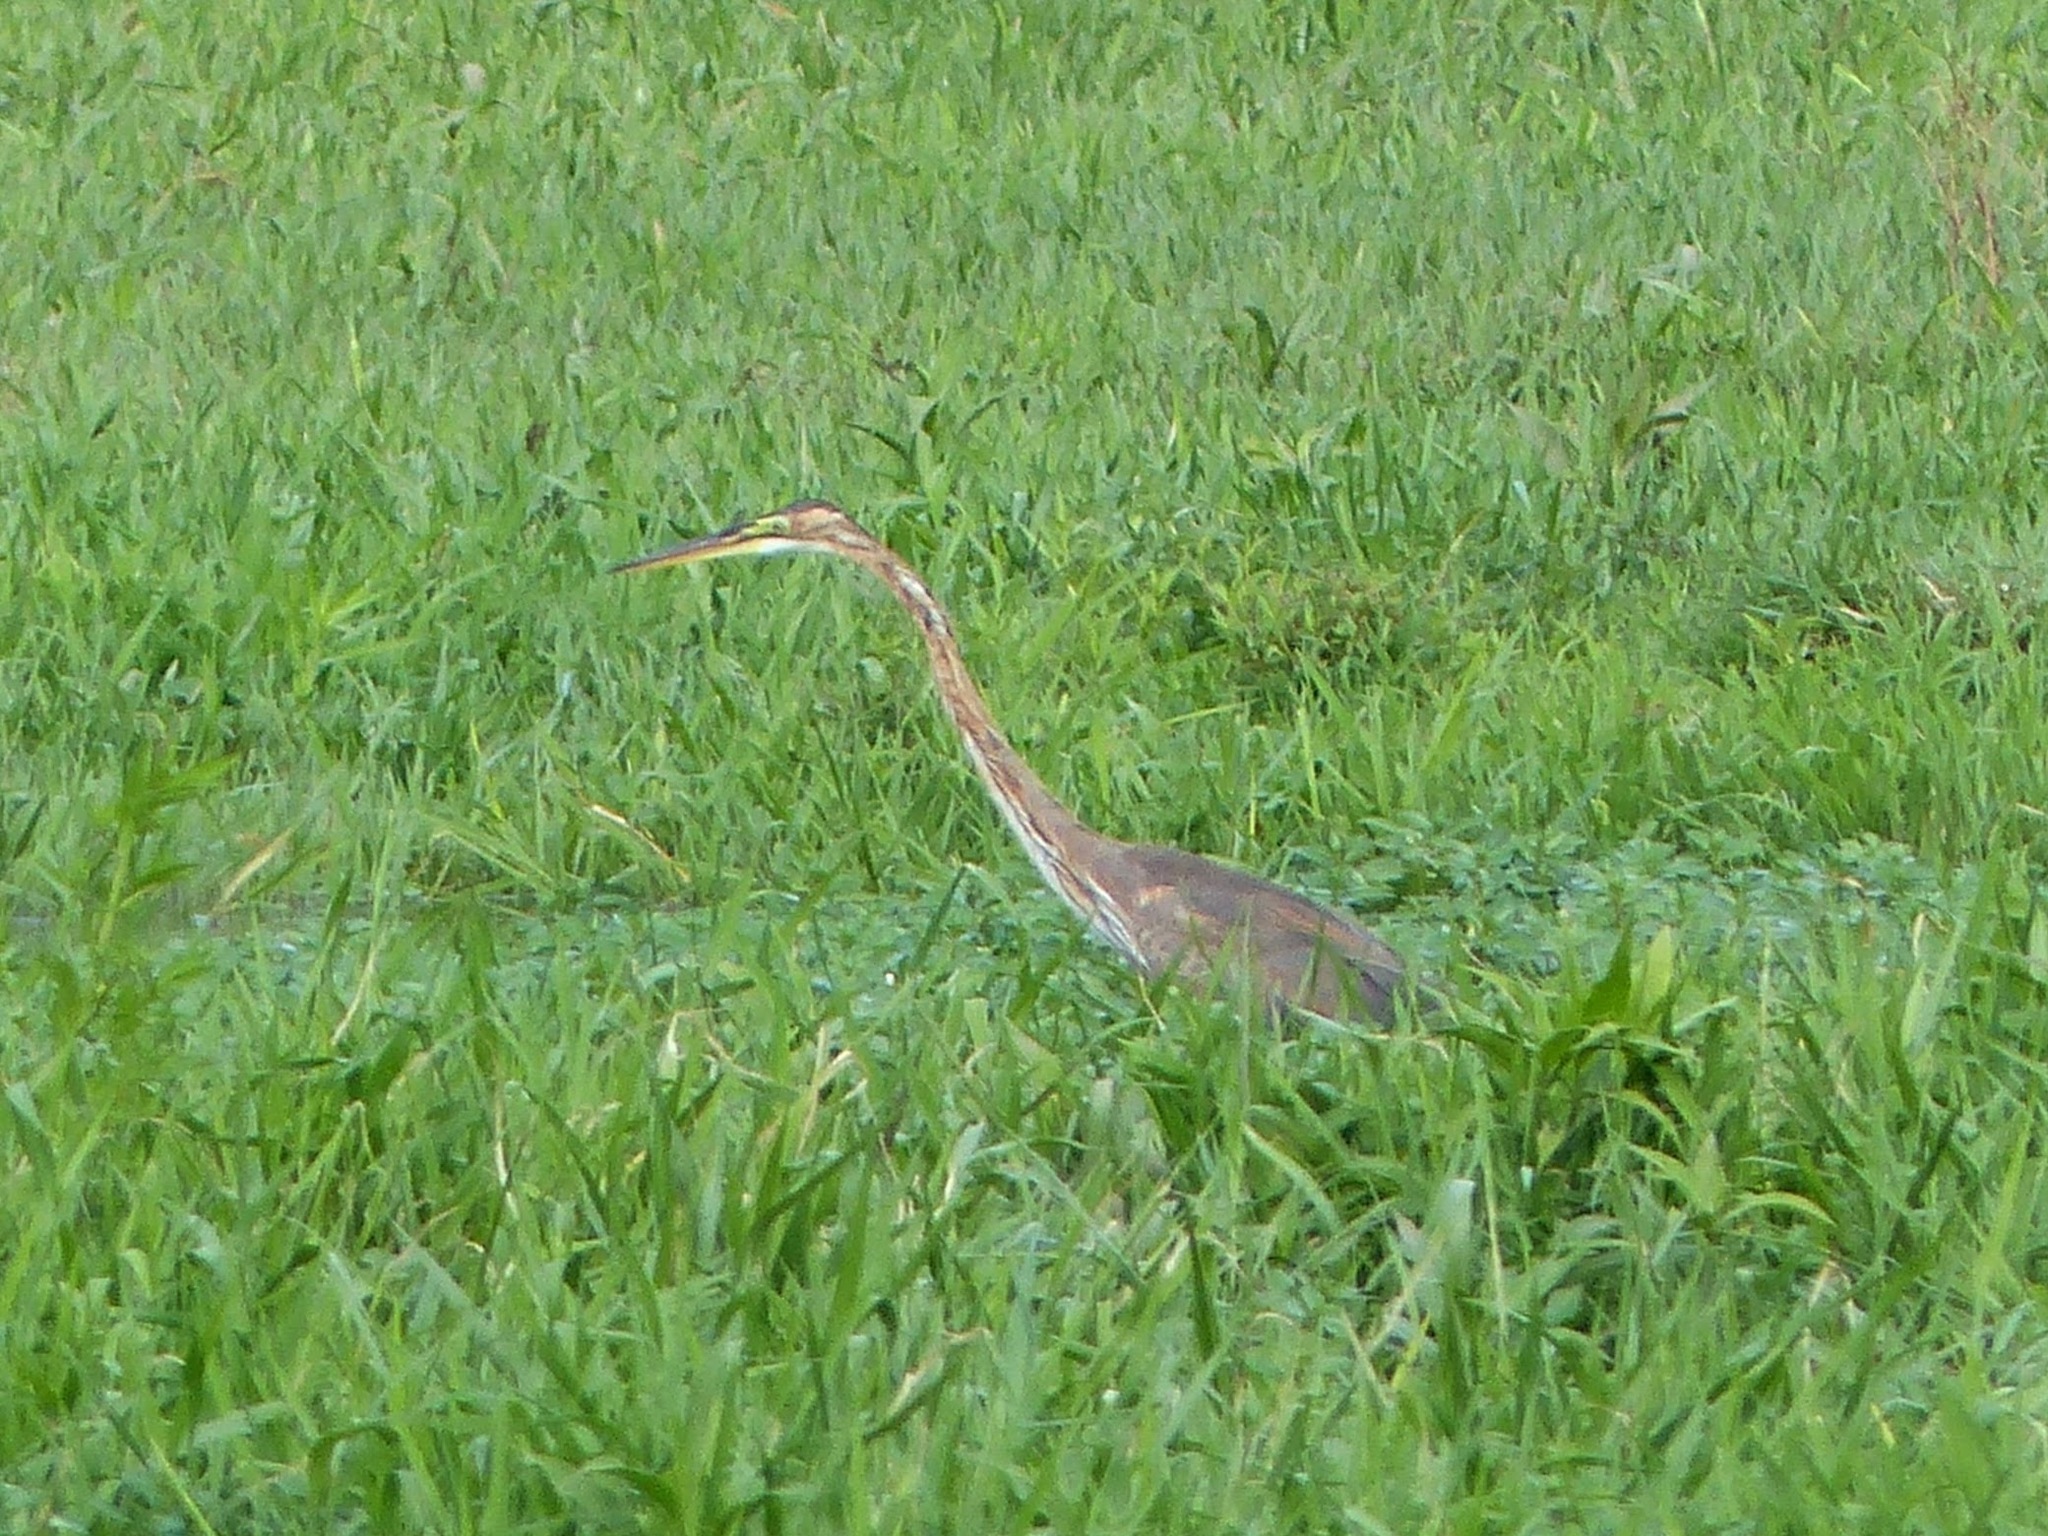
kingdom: Animalia
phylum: Chordata
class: Aves
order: Pelecaniformes
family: Ardeidae
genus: Ardea
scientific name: Ardea purpurea
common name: Purple heron
